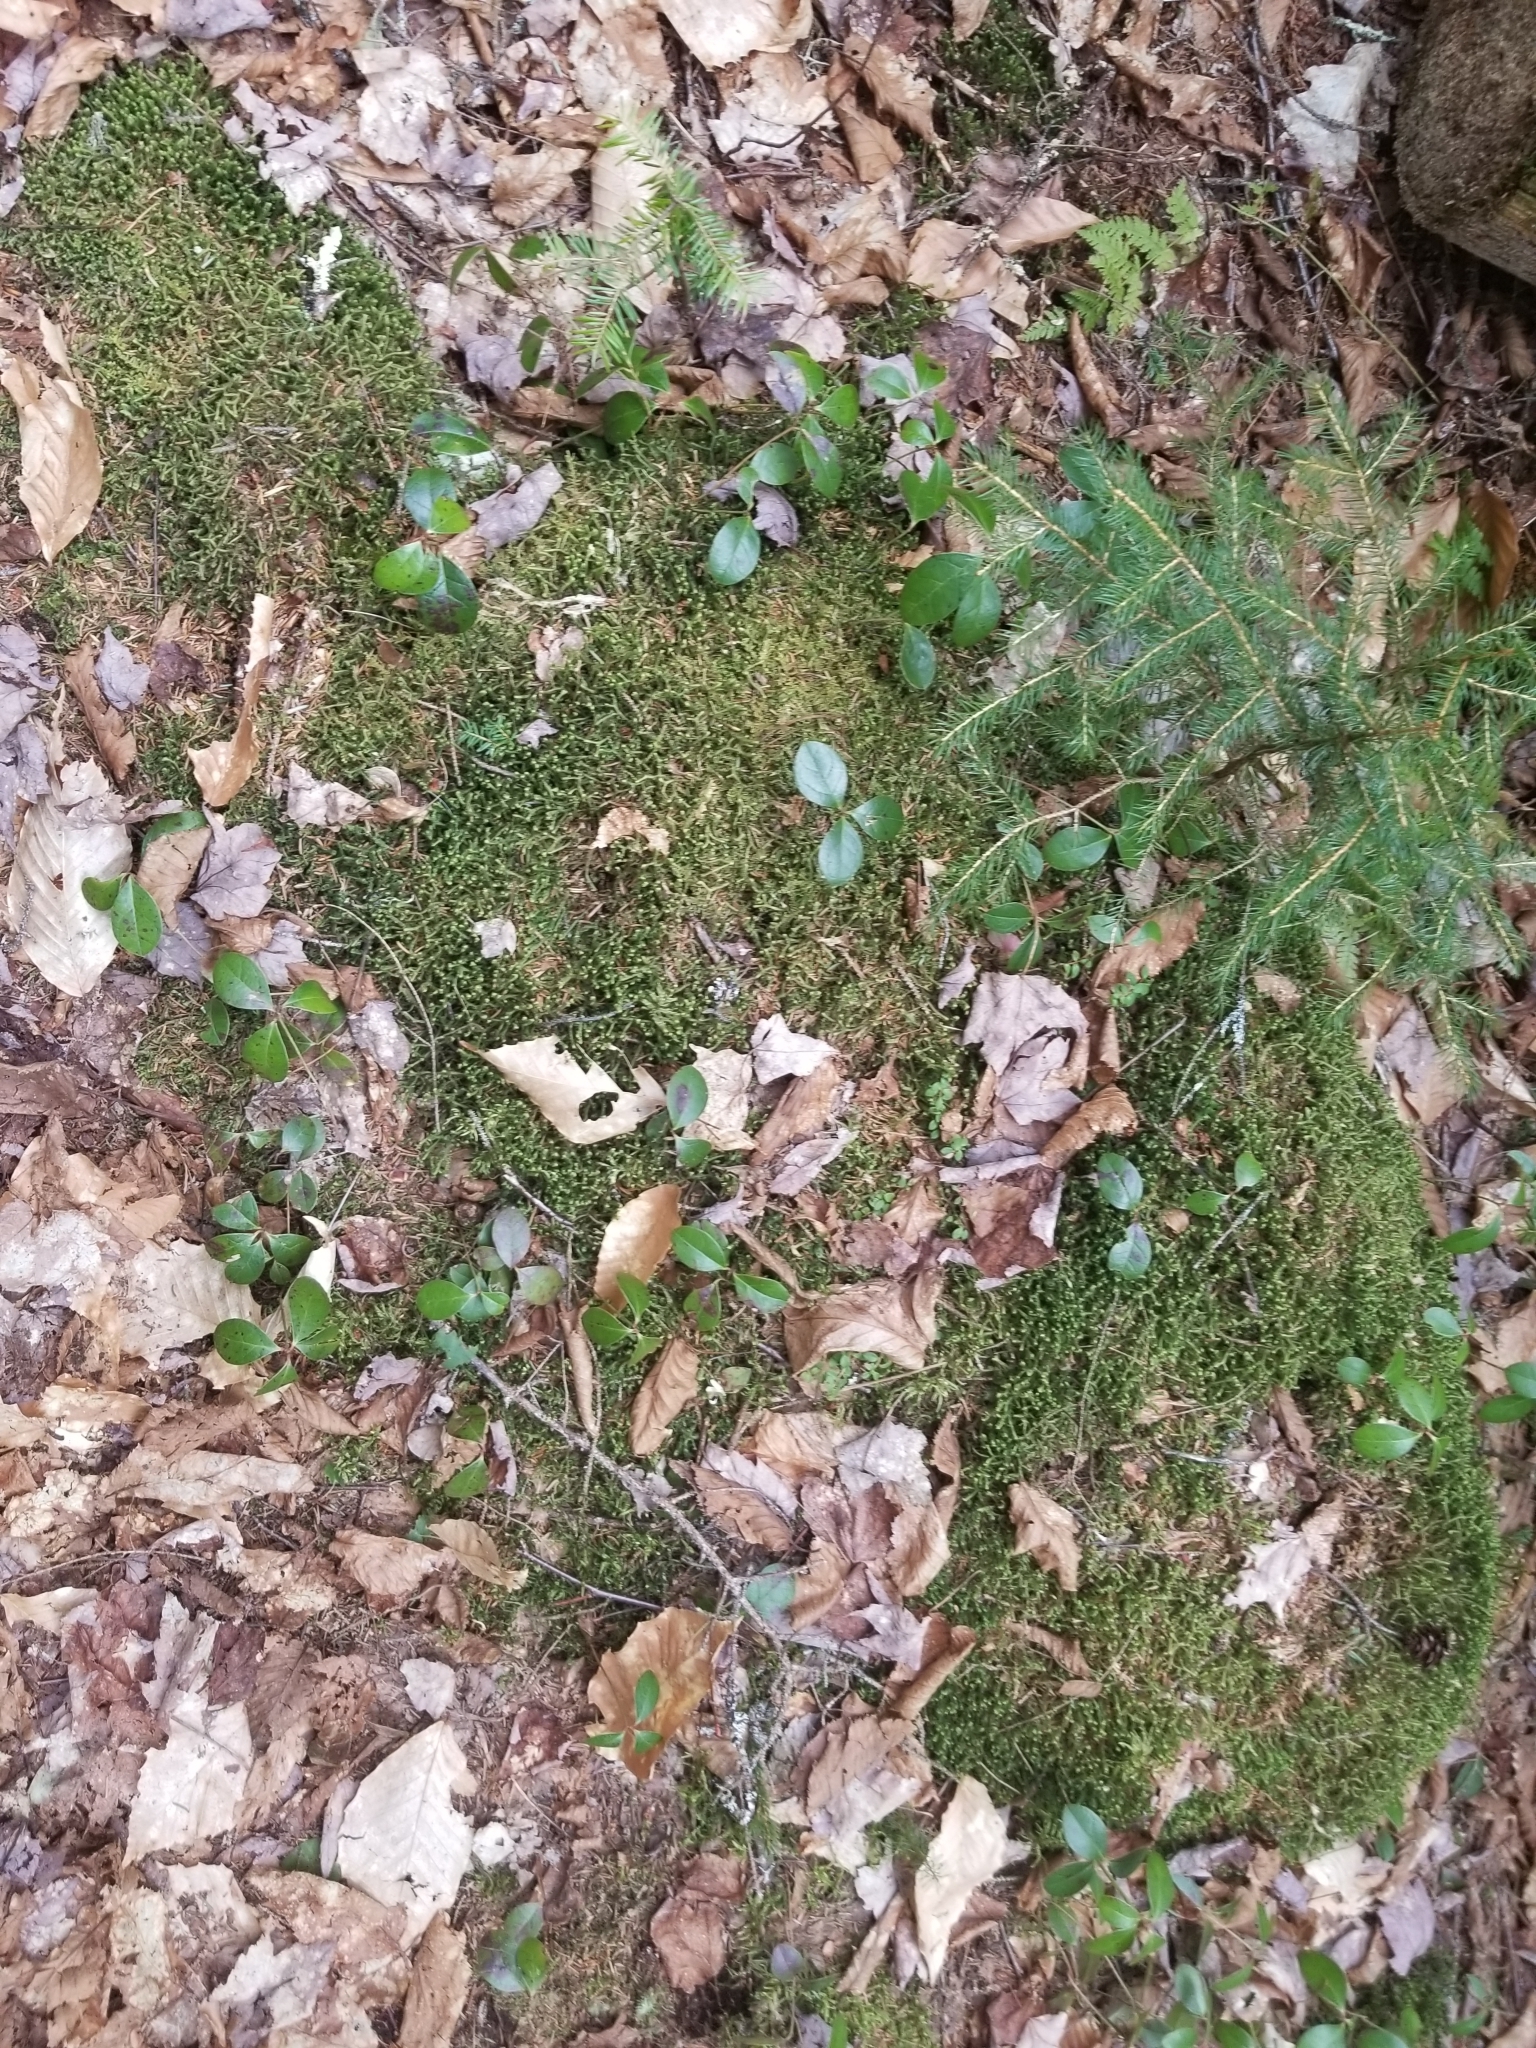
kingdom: Plantae
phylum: Tracheophyta
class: Magnoliopsida
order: Ericales
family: Ericaceae
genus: Gaultheria
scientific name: Gaultheria procumbens
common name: Checkerberry
